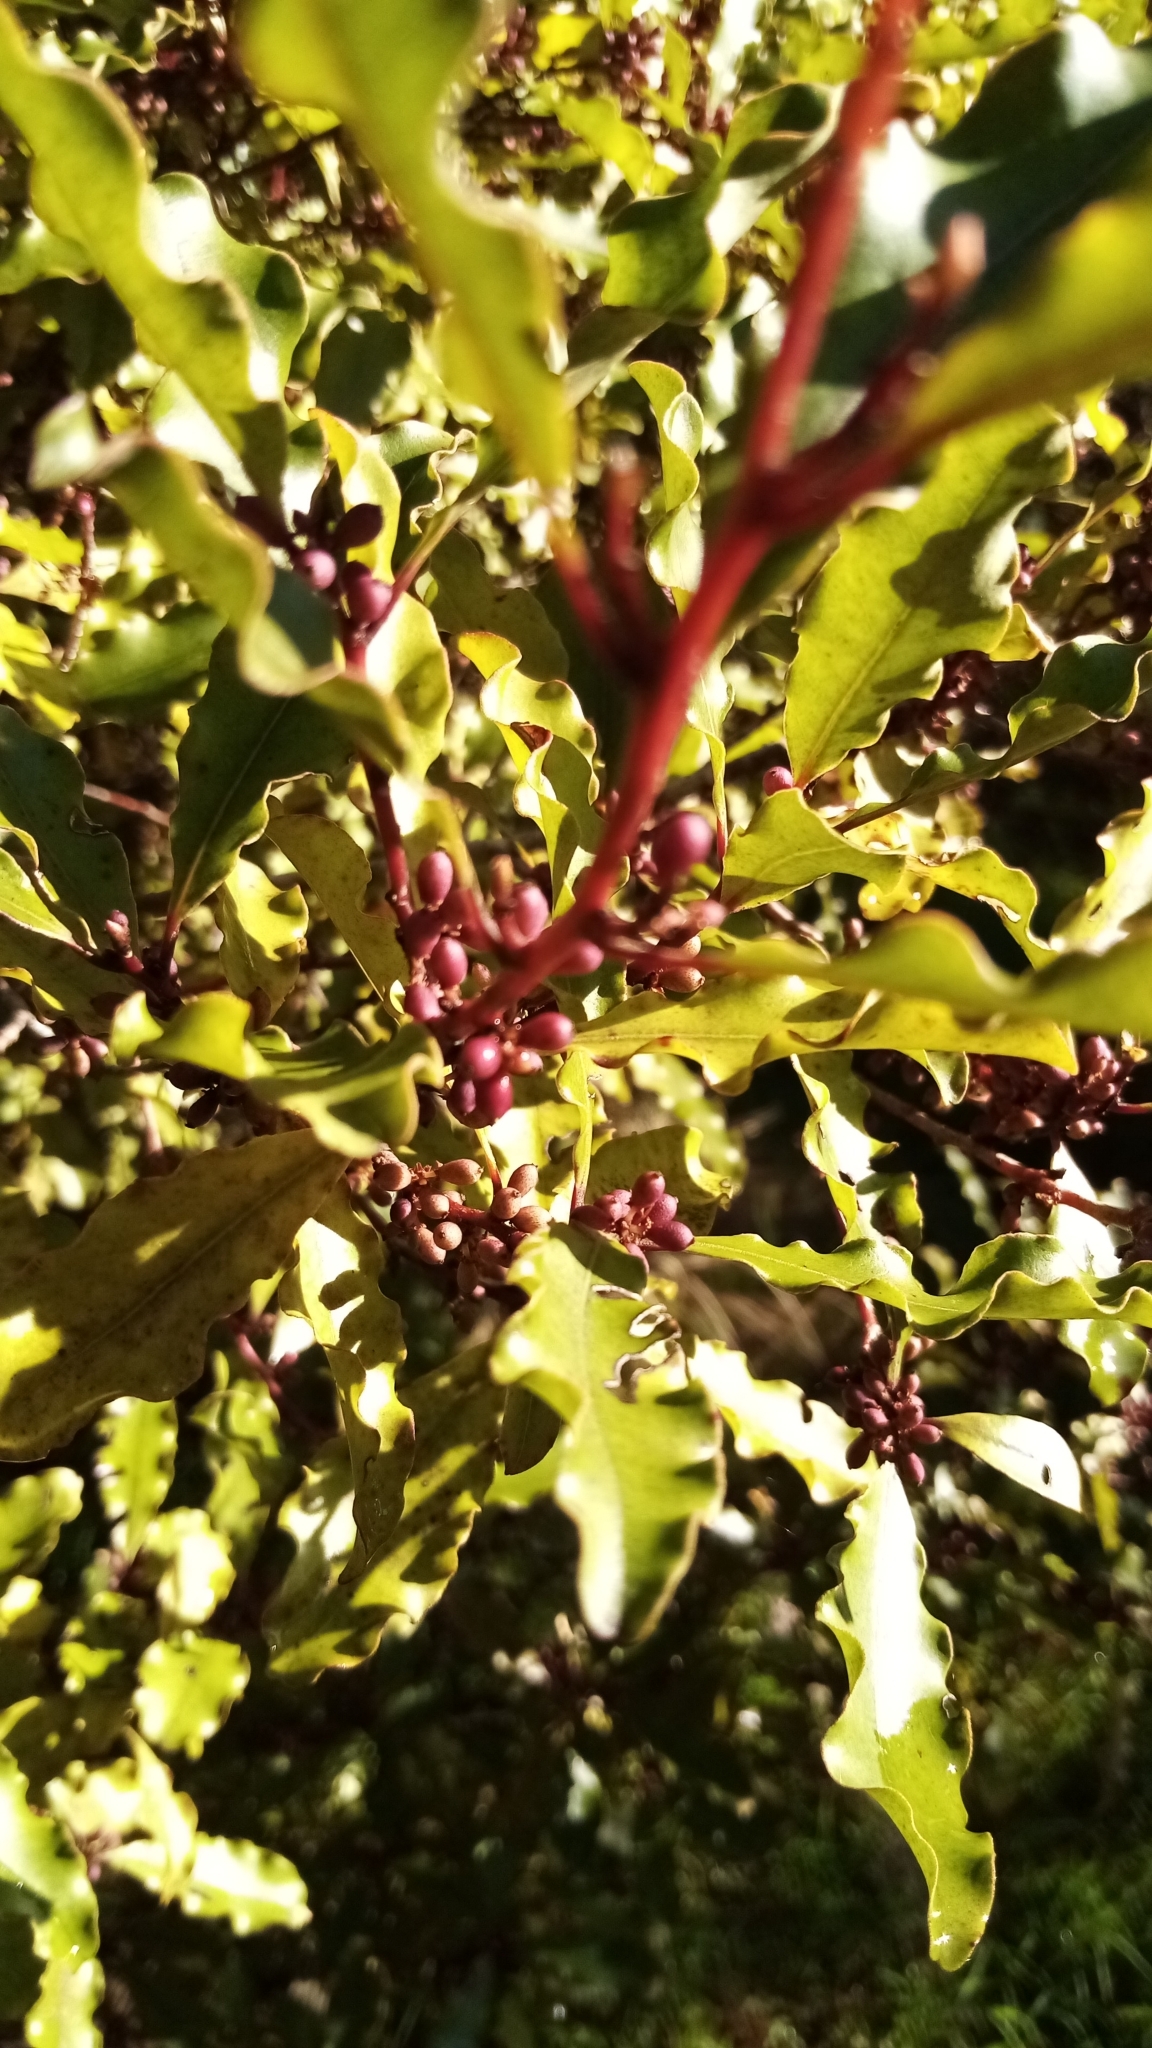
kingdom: Plantae
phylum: Tracheophyta
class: Magnoliopsida
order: Ericales
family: Primulaceae
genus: Myrsine
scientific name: Myrsine australis
